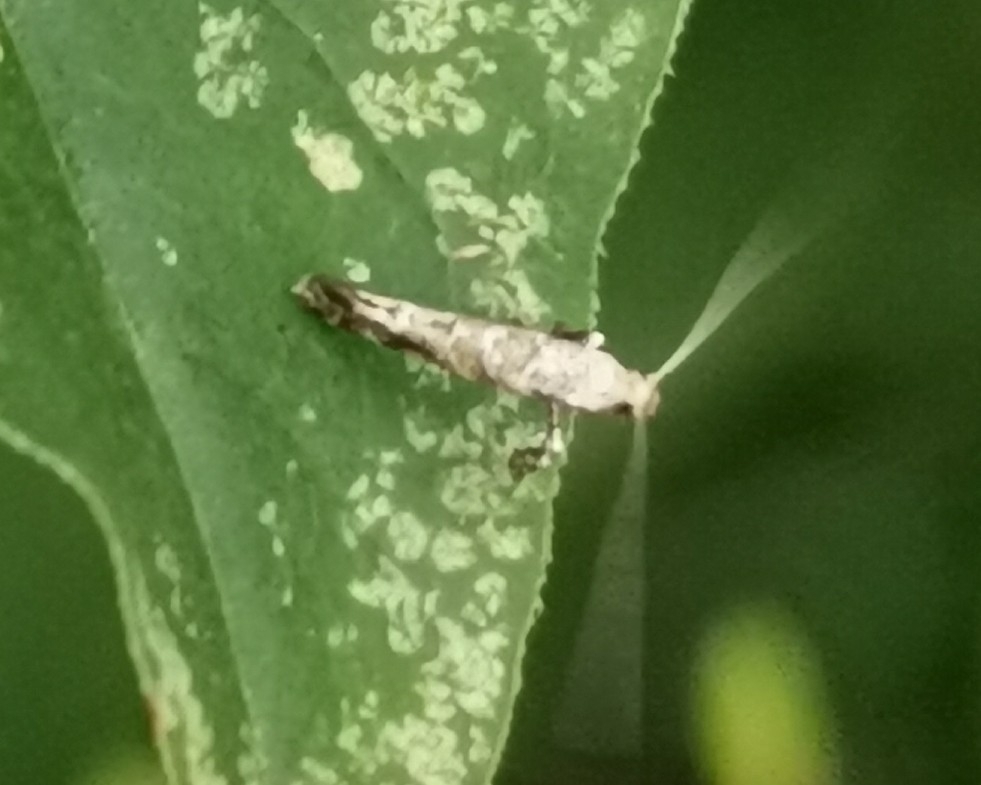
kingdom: Animalia
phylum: Arthropoda
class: Insecta
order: Lepidoptera
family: Gracillariidae
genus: Gracillaria
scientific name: Gracillaria syringella
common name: Common slender
